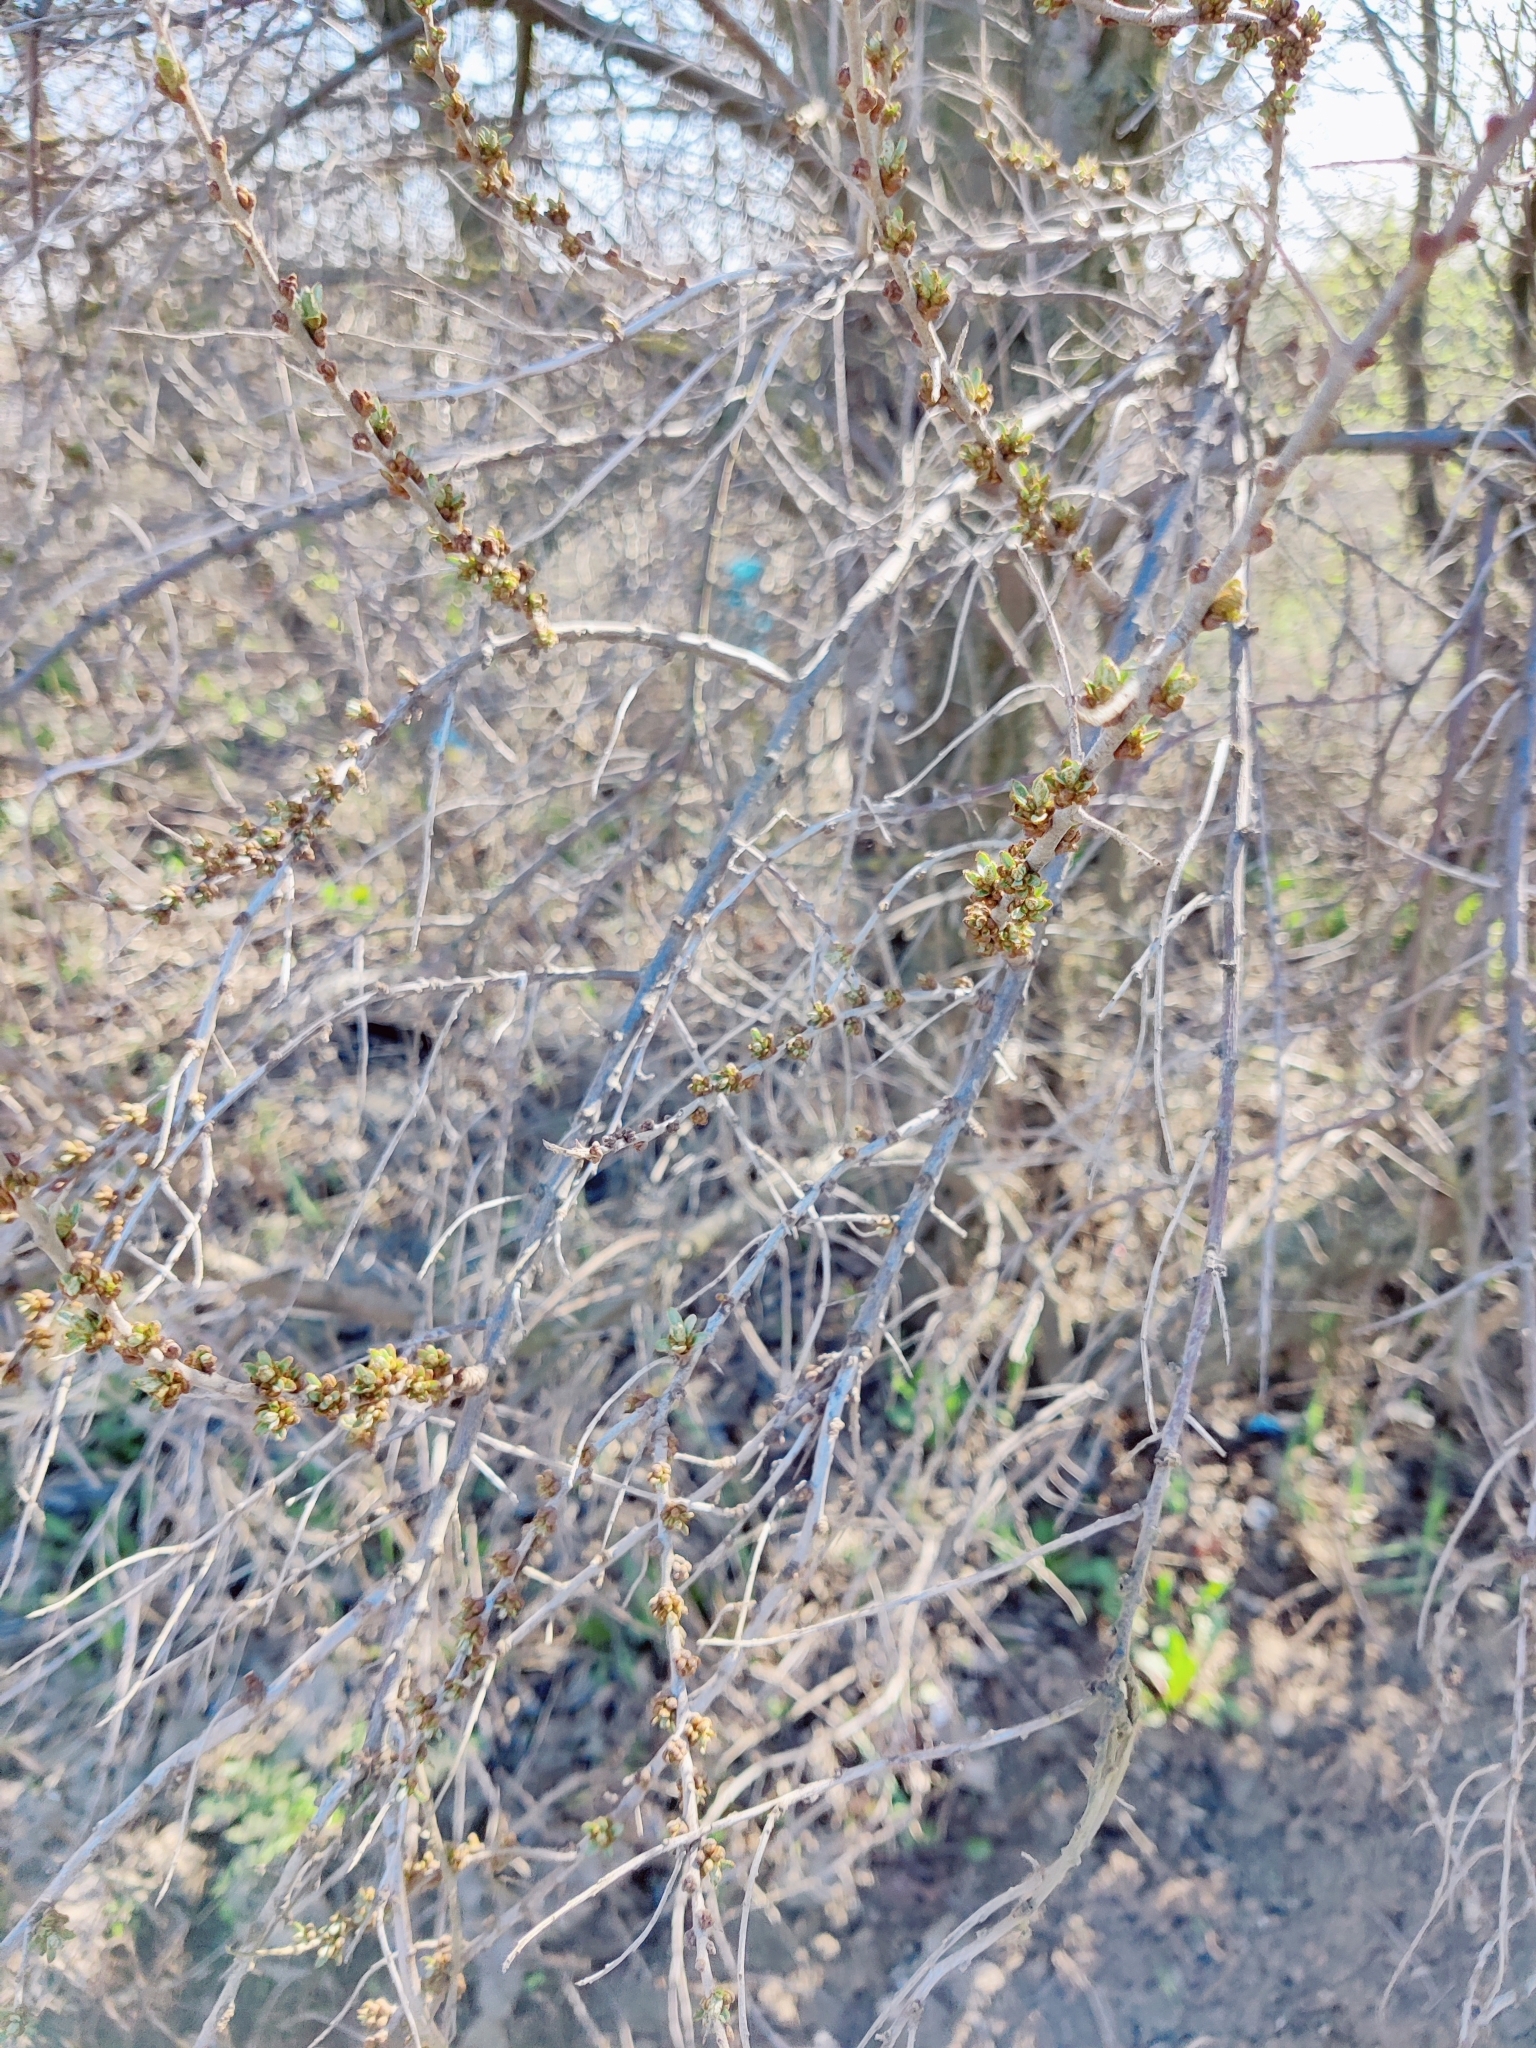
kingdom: Plantae
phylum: Tracheophyta
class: Magnoliopsida
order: Rosales
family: Elaeagnaceae
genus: Hippophae
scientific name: Hippophae rhamnoides
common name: Sea-buckthorn
